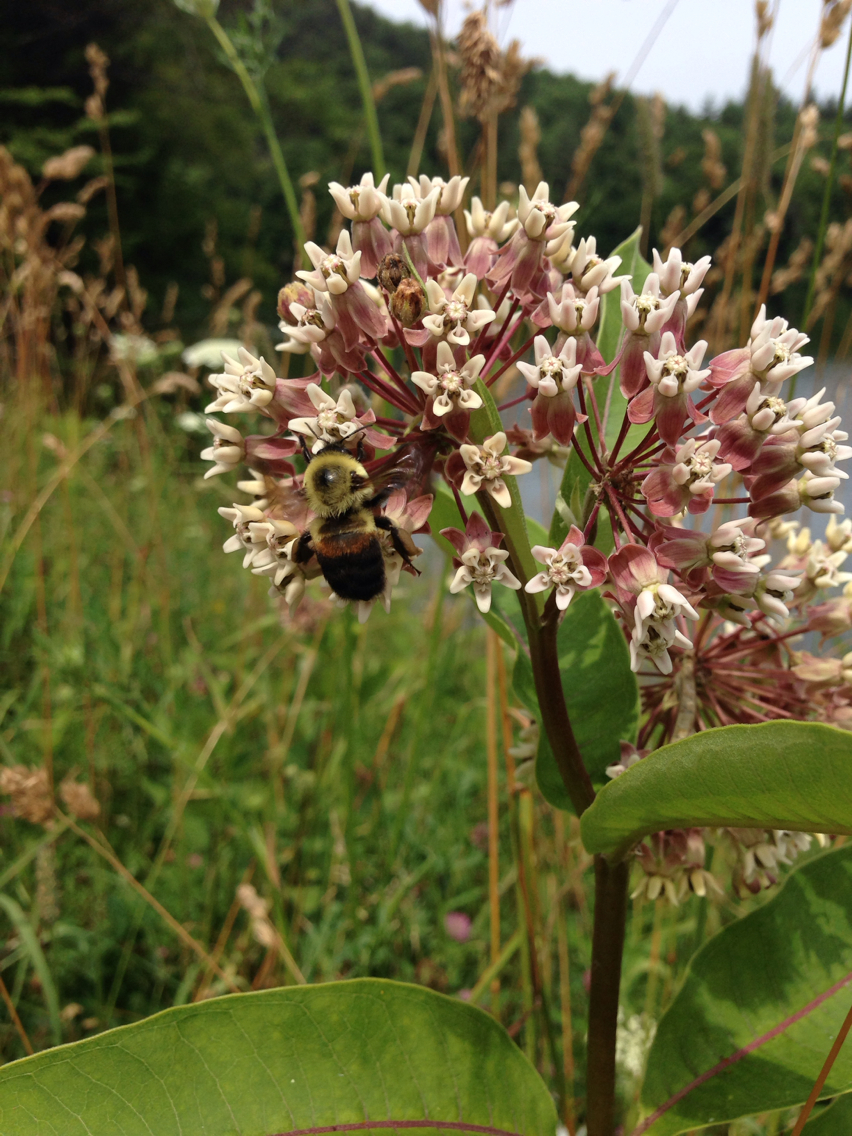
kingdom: Animalia
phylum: Arthropoda
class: Insecta
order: Hymenoptera
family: Apidae
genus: Bombus
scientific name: Bombus griseocollis
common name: Brown-belted bumble bee
